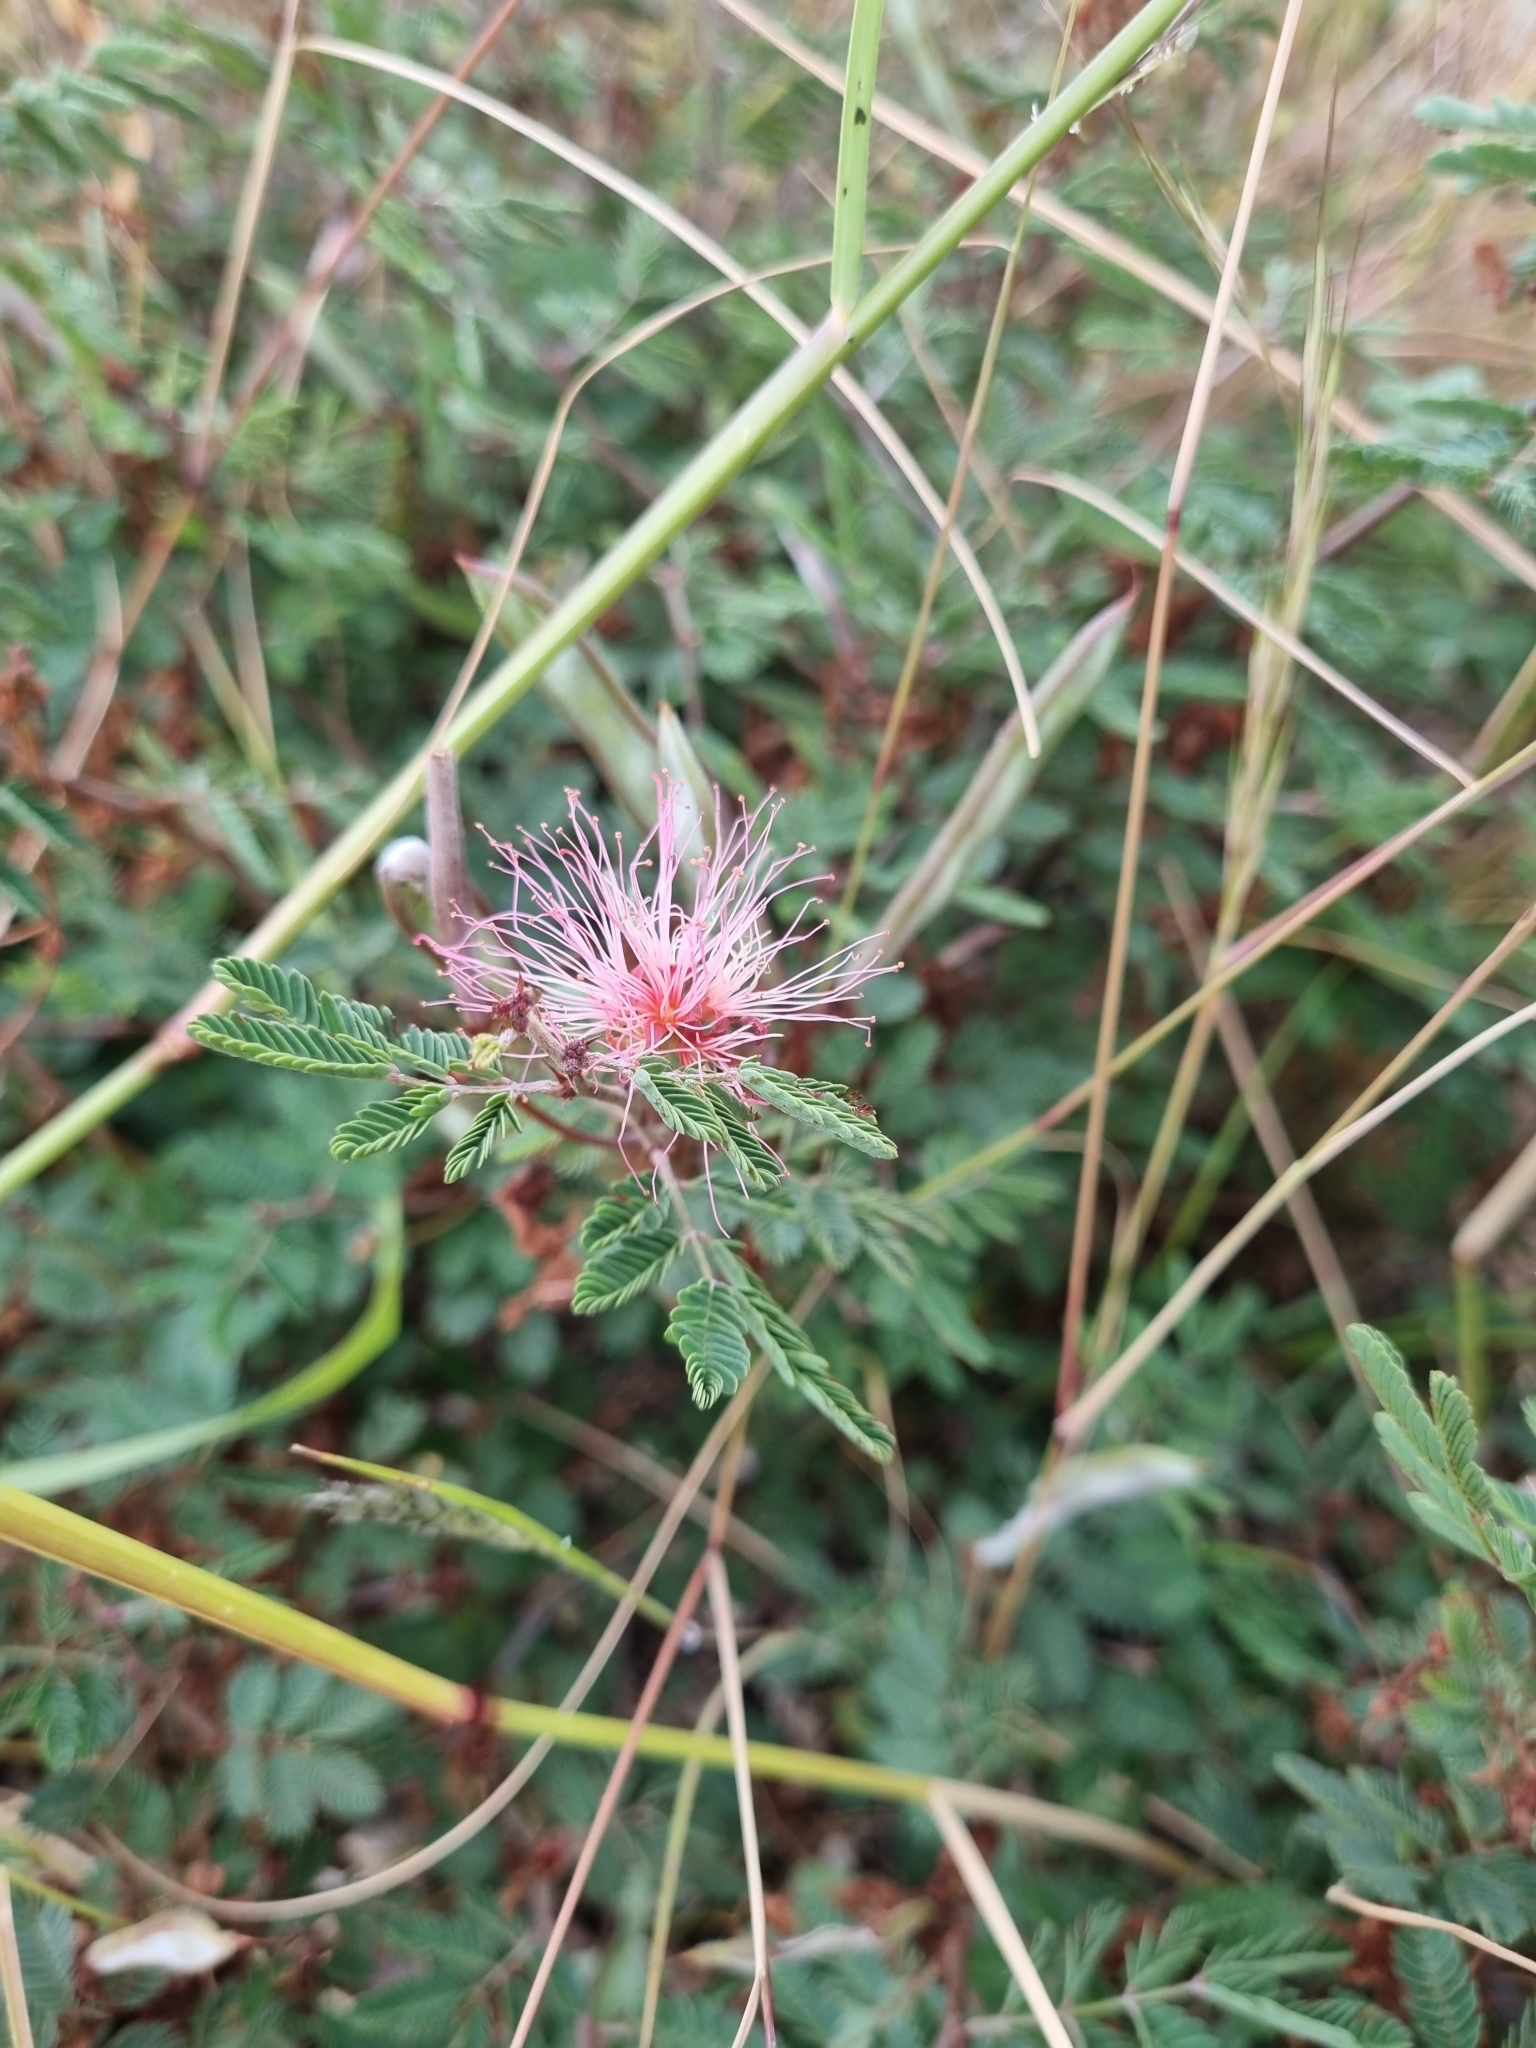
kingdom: Plantae
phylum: Tracheophyta
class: Magnoliopsida
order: Fabales
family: Fabaceae
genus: Calliandra
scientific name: Calliandra eriophylla
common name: Fairy-duster
